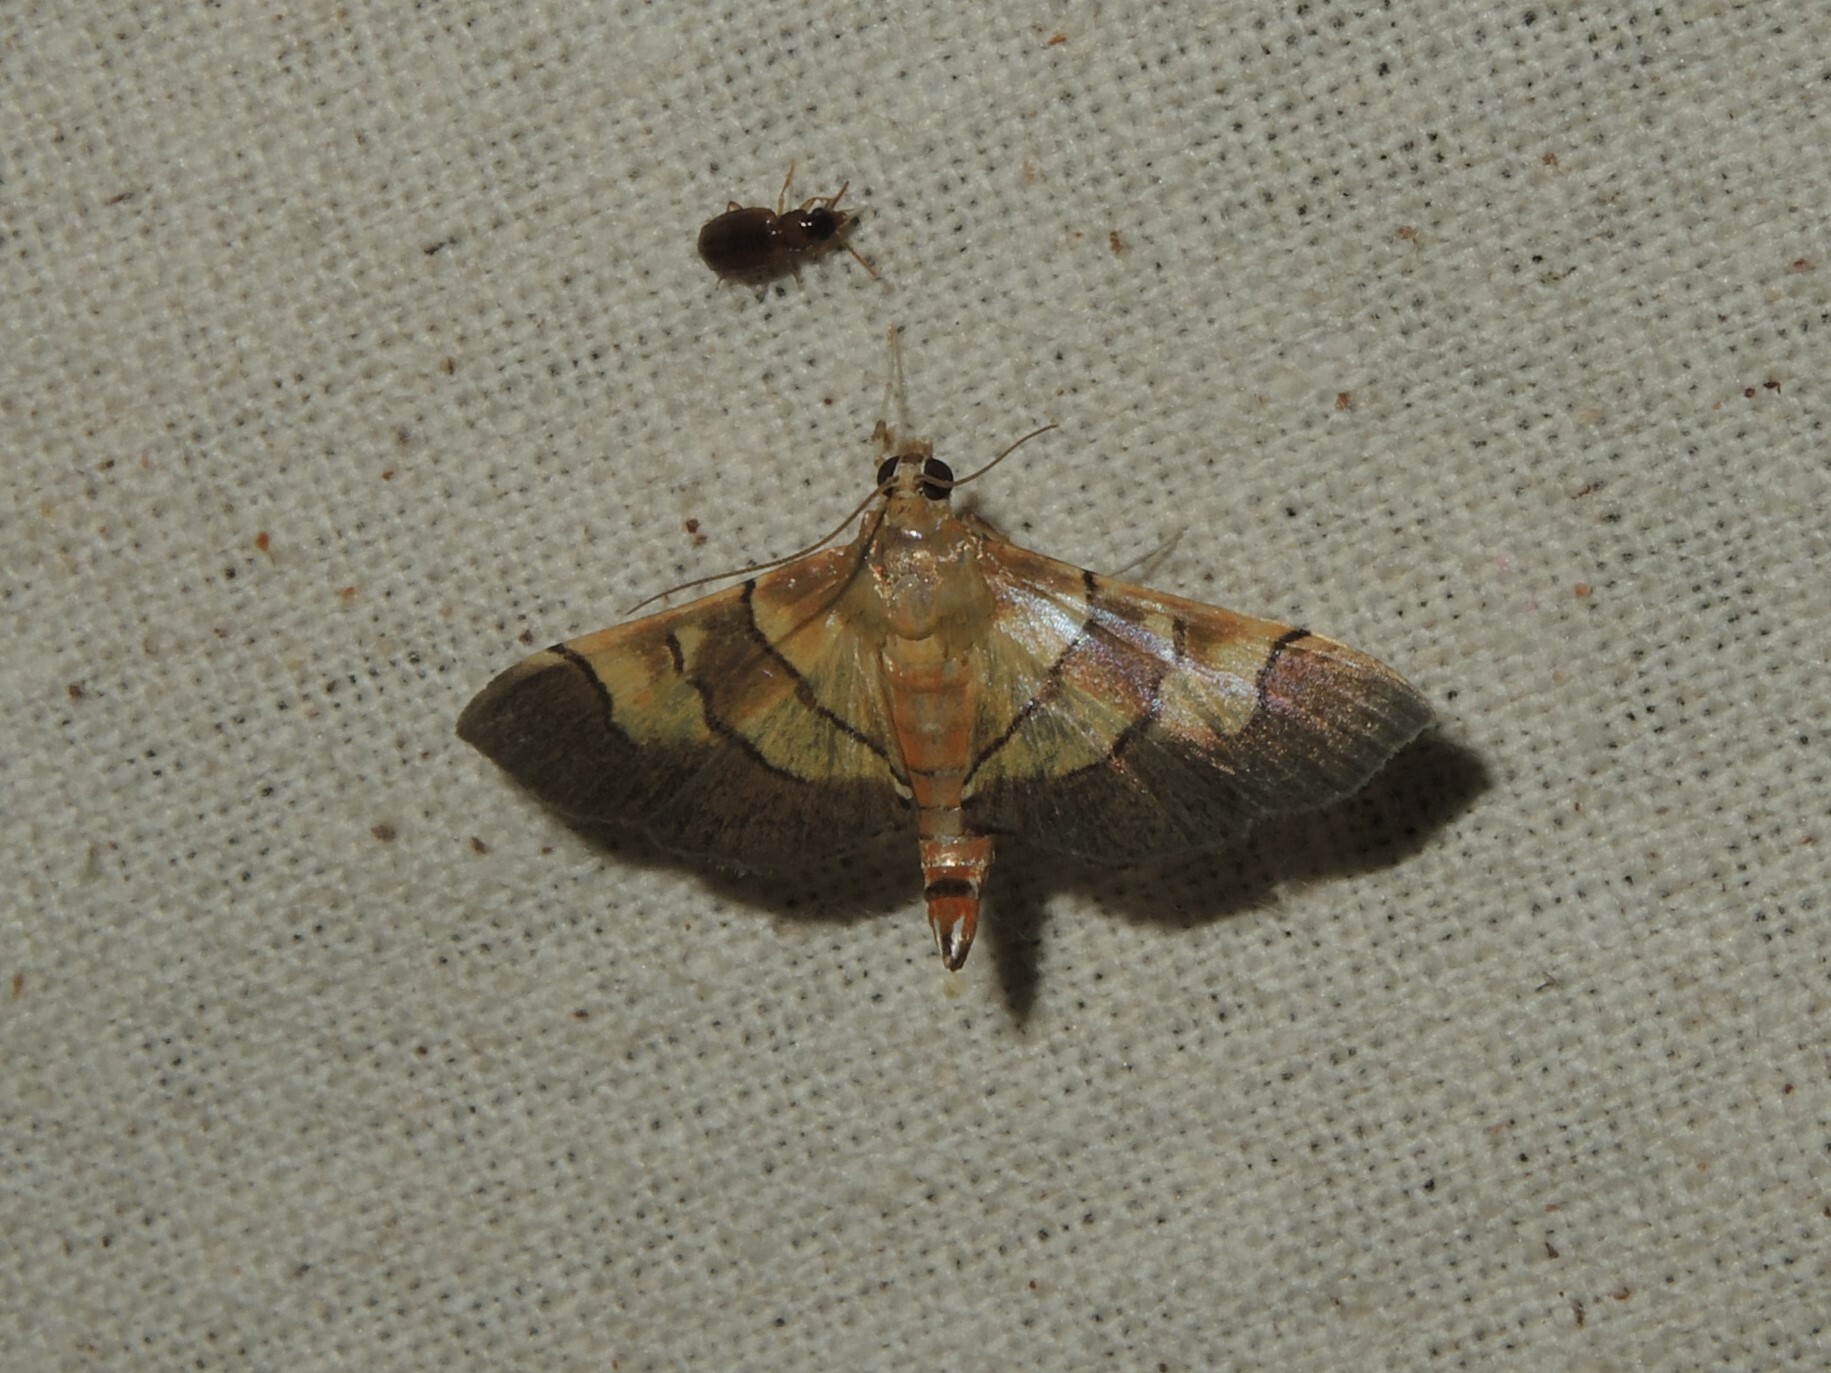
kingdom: Animalia
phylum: Arthropoda
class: Insecta
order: Lepidoptera
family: Crambidae
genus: Syngamia
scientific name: Syngamia latimarginalis
